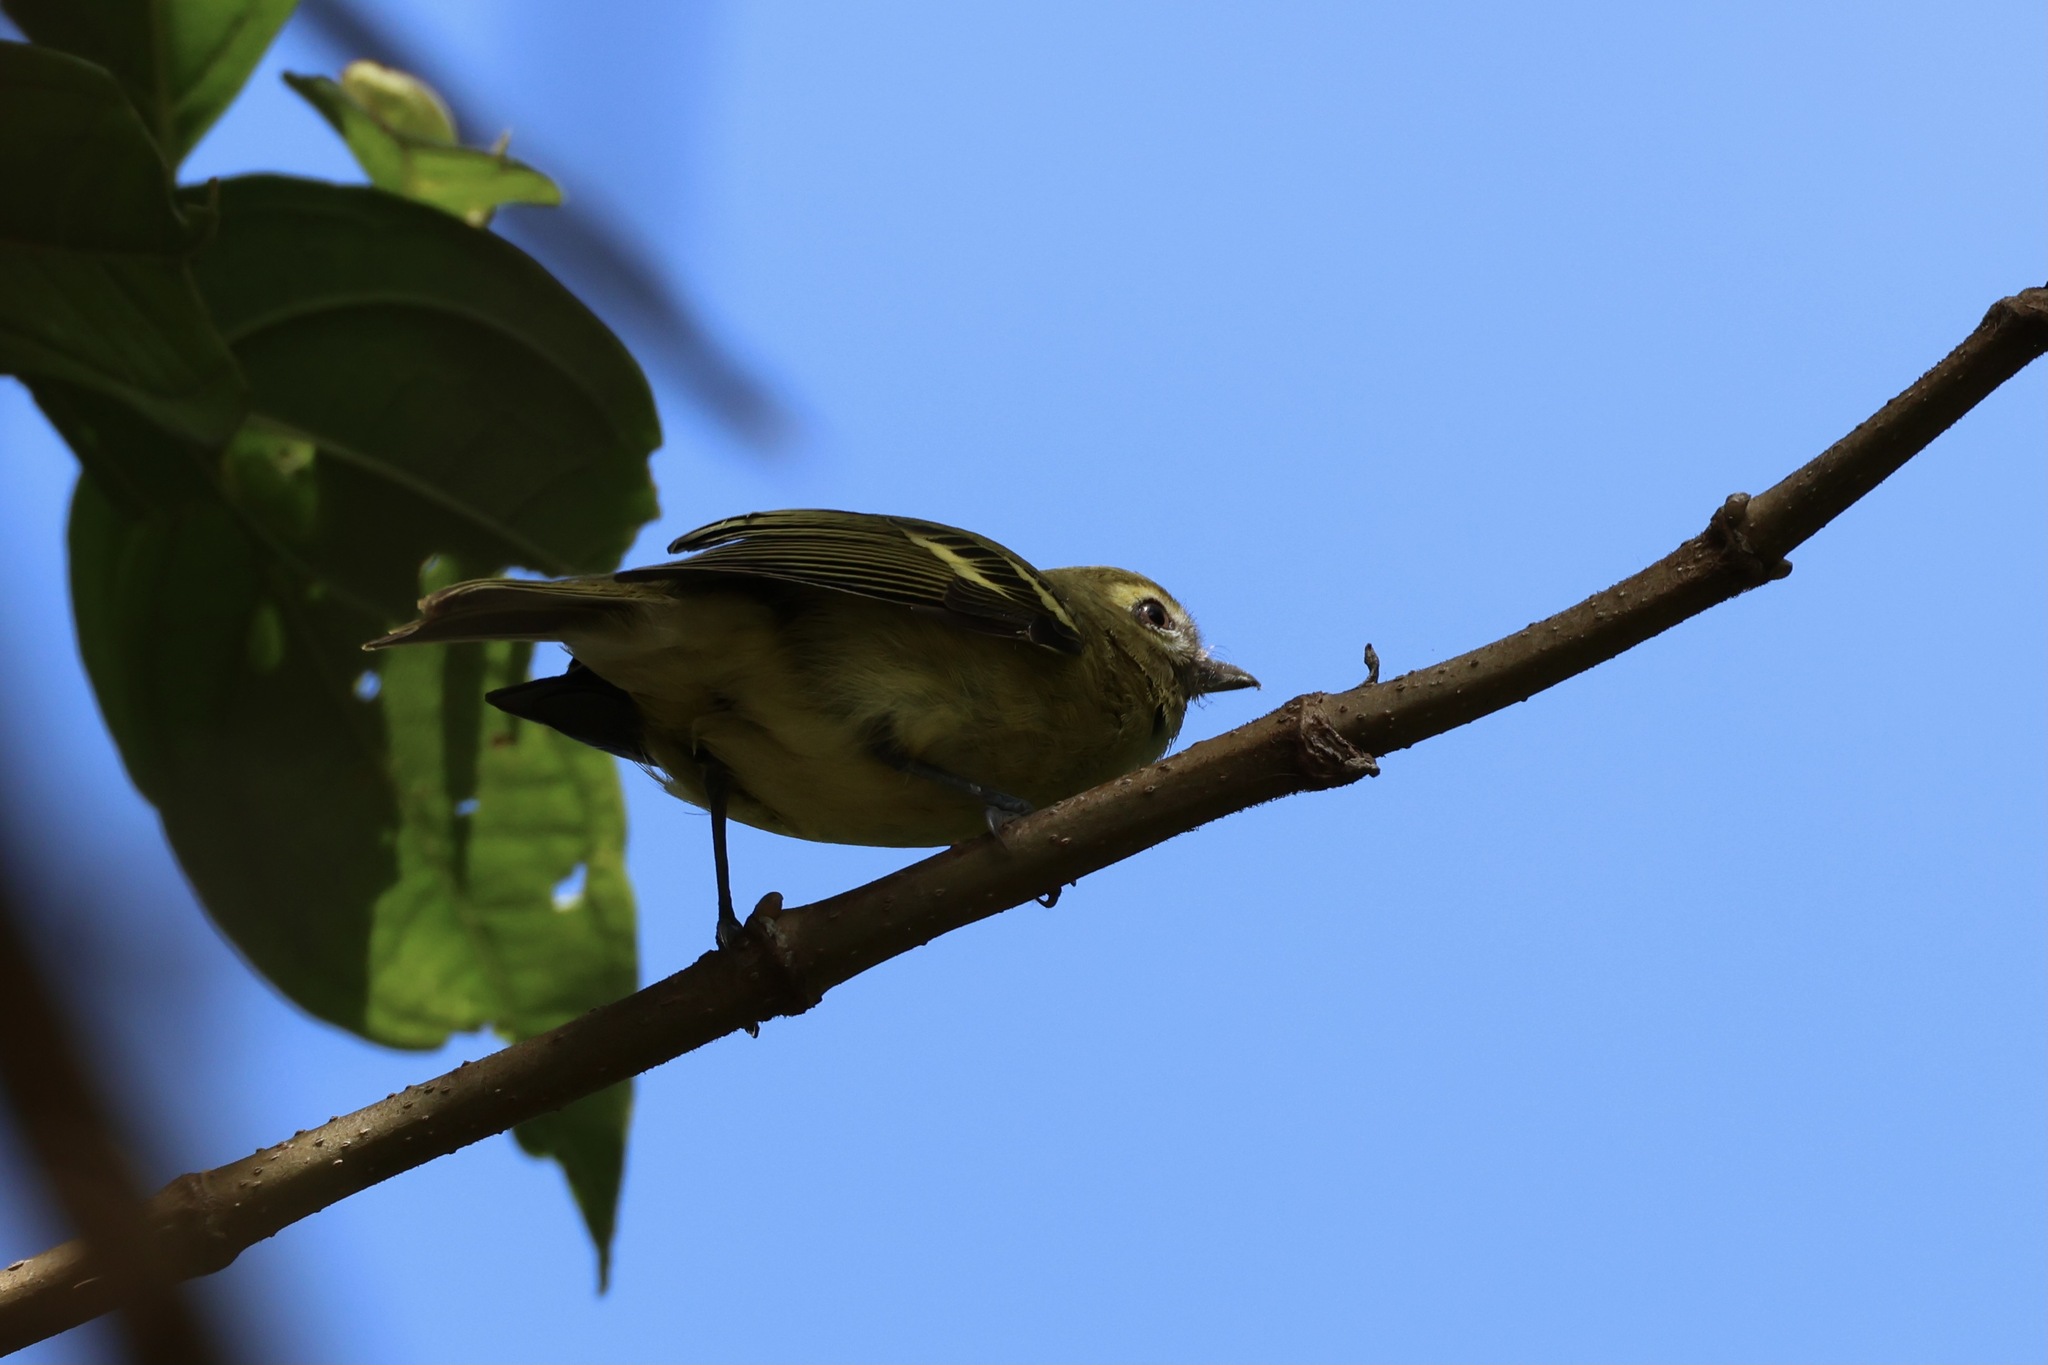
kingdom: Animalia
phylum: Chordata
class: Aves
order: Passeriformes
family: Vireonidae
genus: Vireo
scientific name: Vireo carmioli
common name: Yellow-winged vireo
